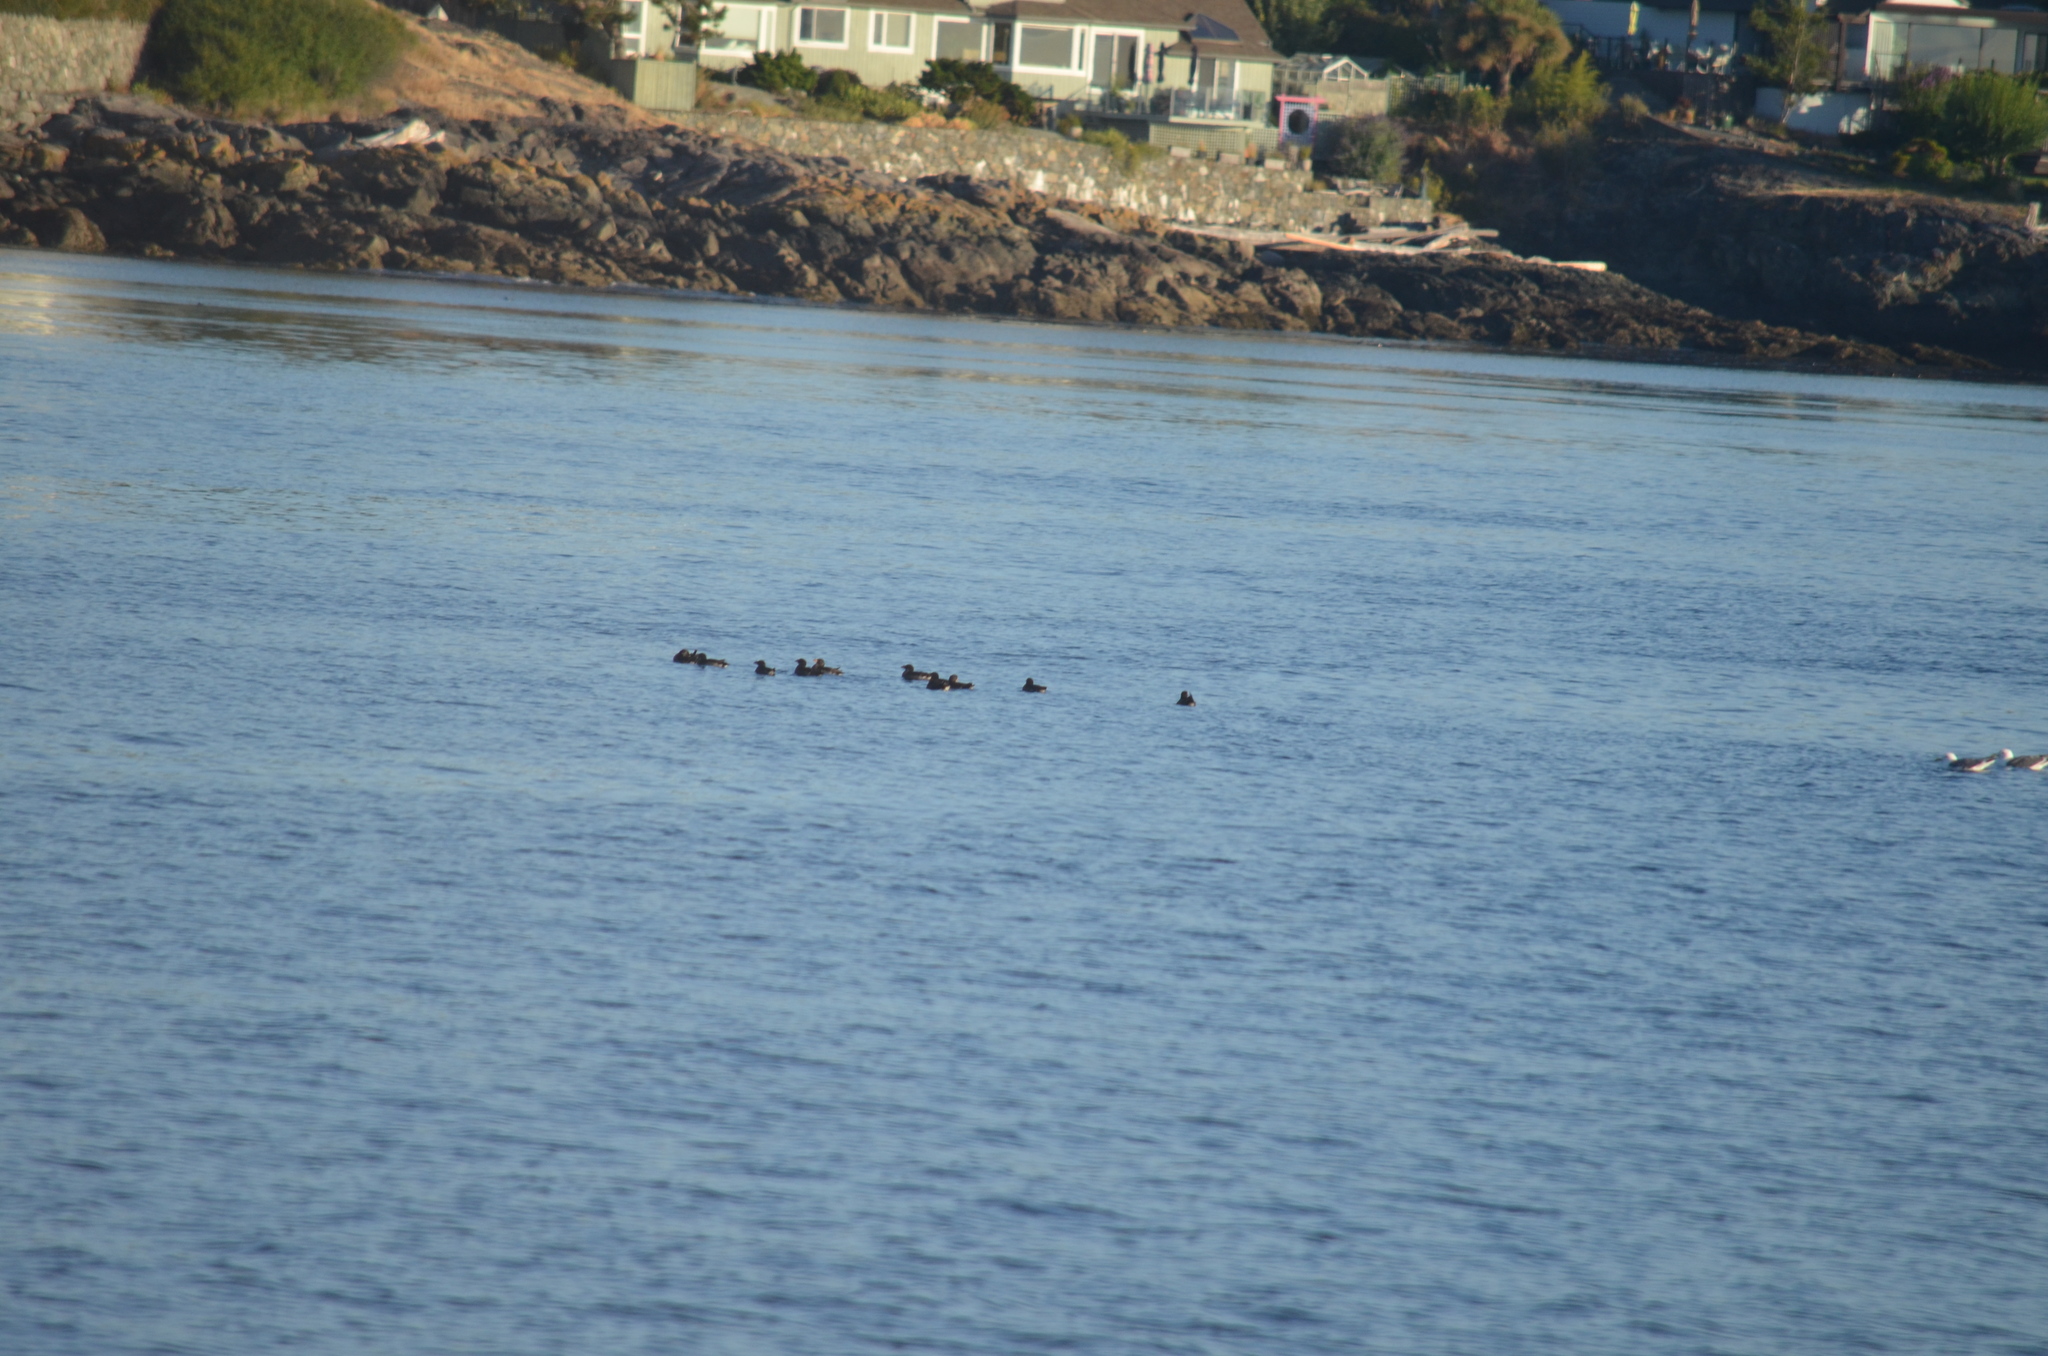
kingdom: Animalia
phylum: Chordata
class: Aves
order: Charadriiformes
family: Alcidae
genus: Cerorhinca
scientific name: Cerorhinca monocerata
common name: Rhinoceros auklet
